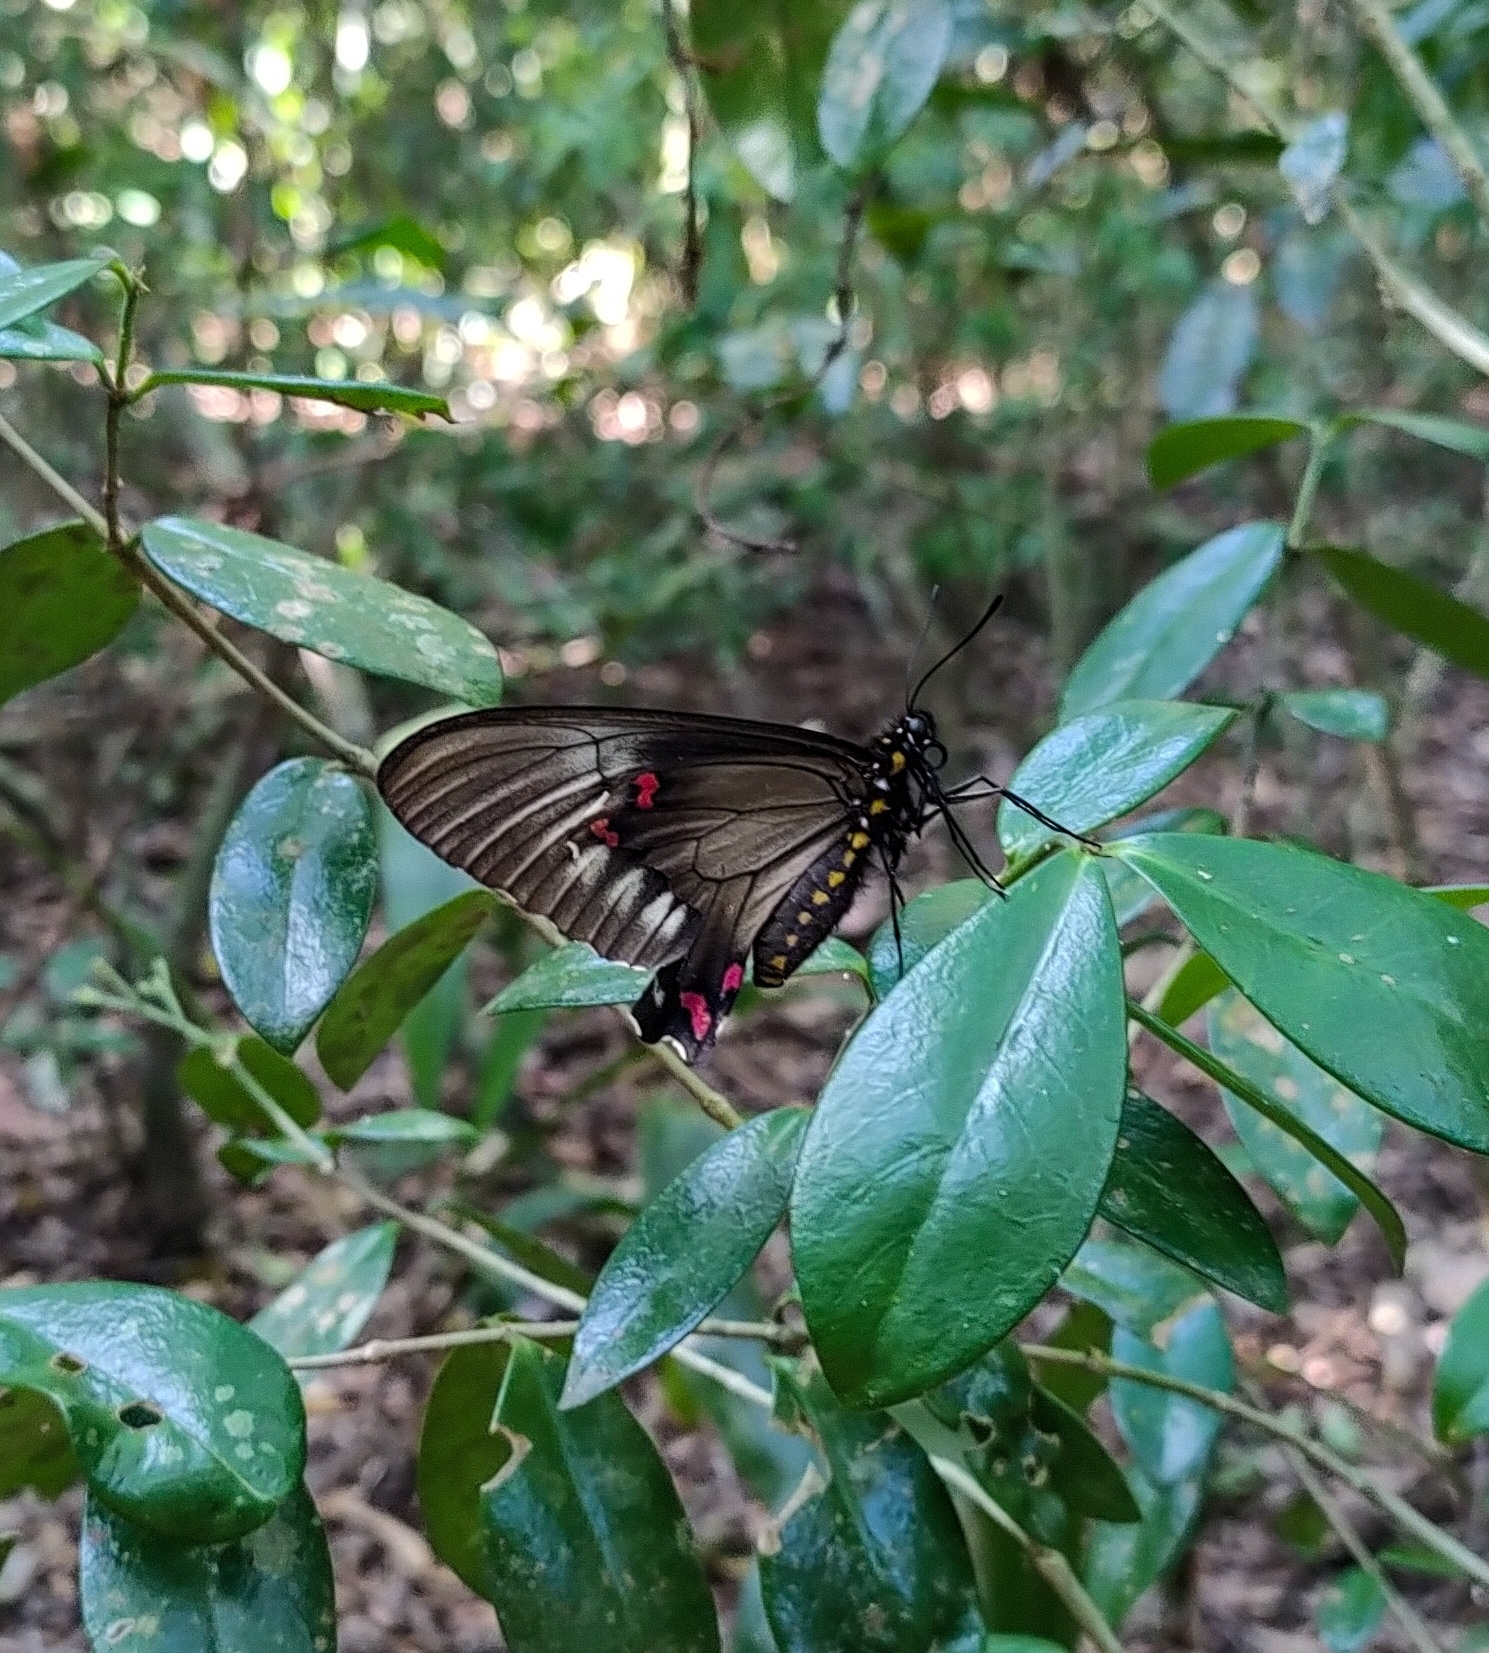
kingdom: Animalia
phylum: Arthropoda
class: Insecta
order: Lepidoptera
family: Papilionidae
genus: Battus
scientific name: Battus polystictus
